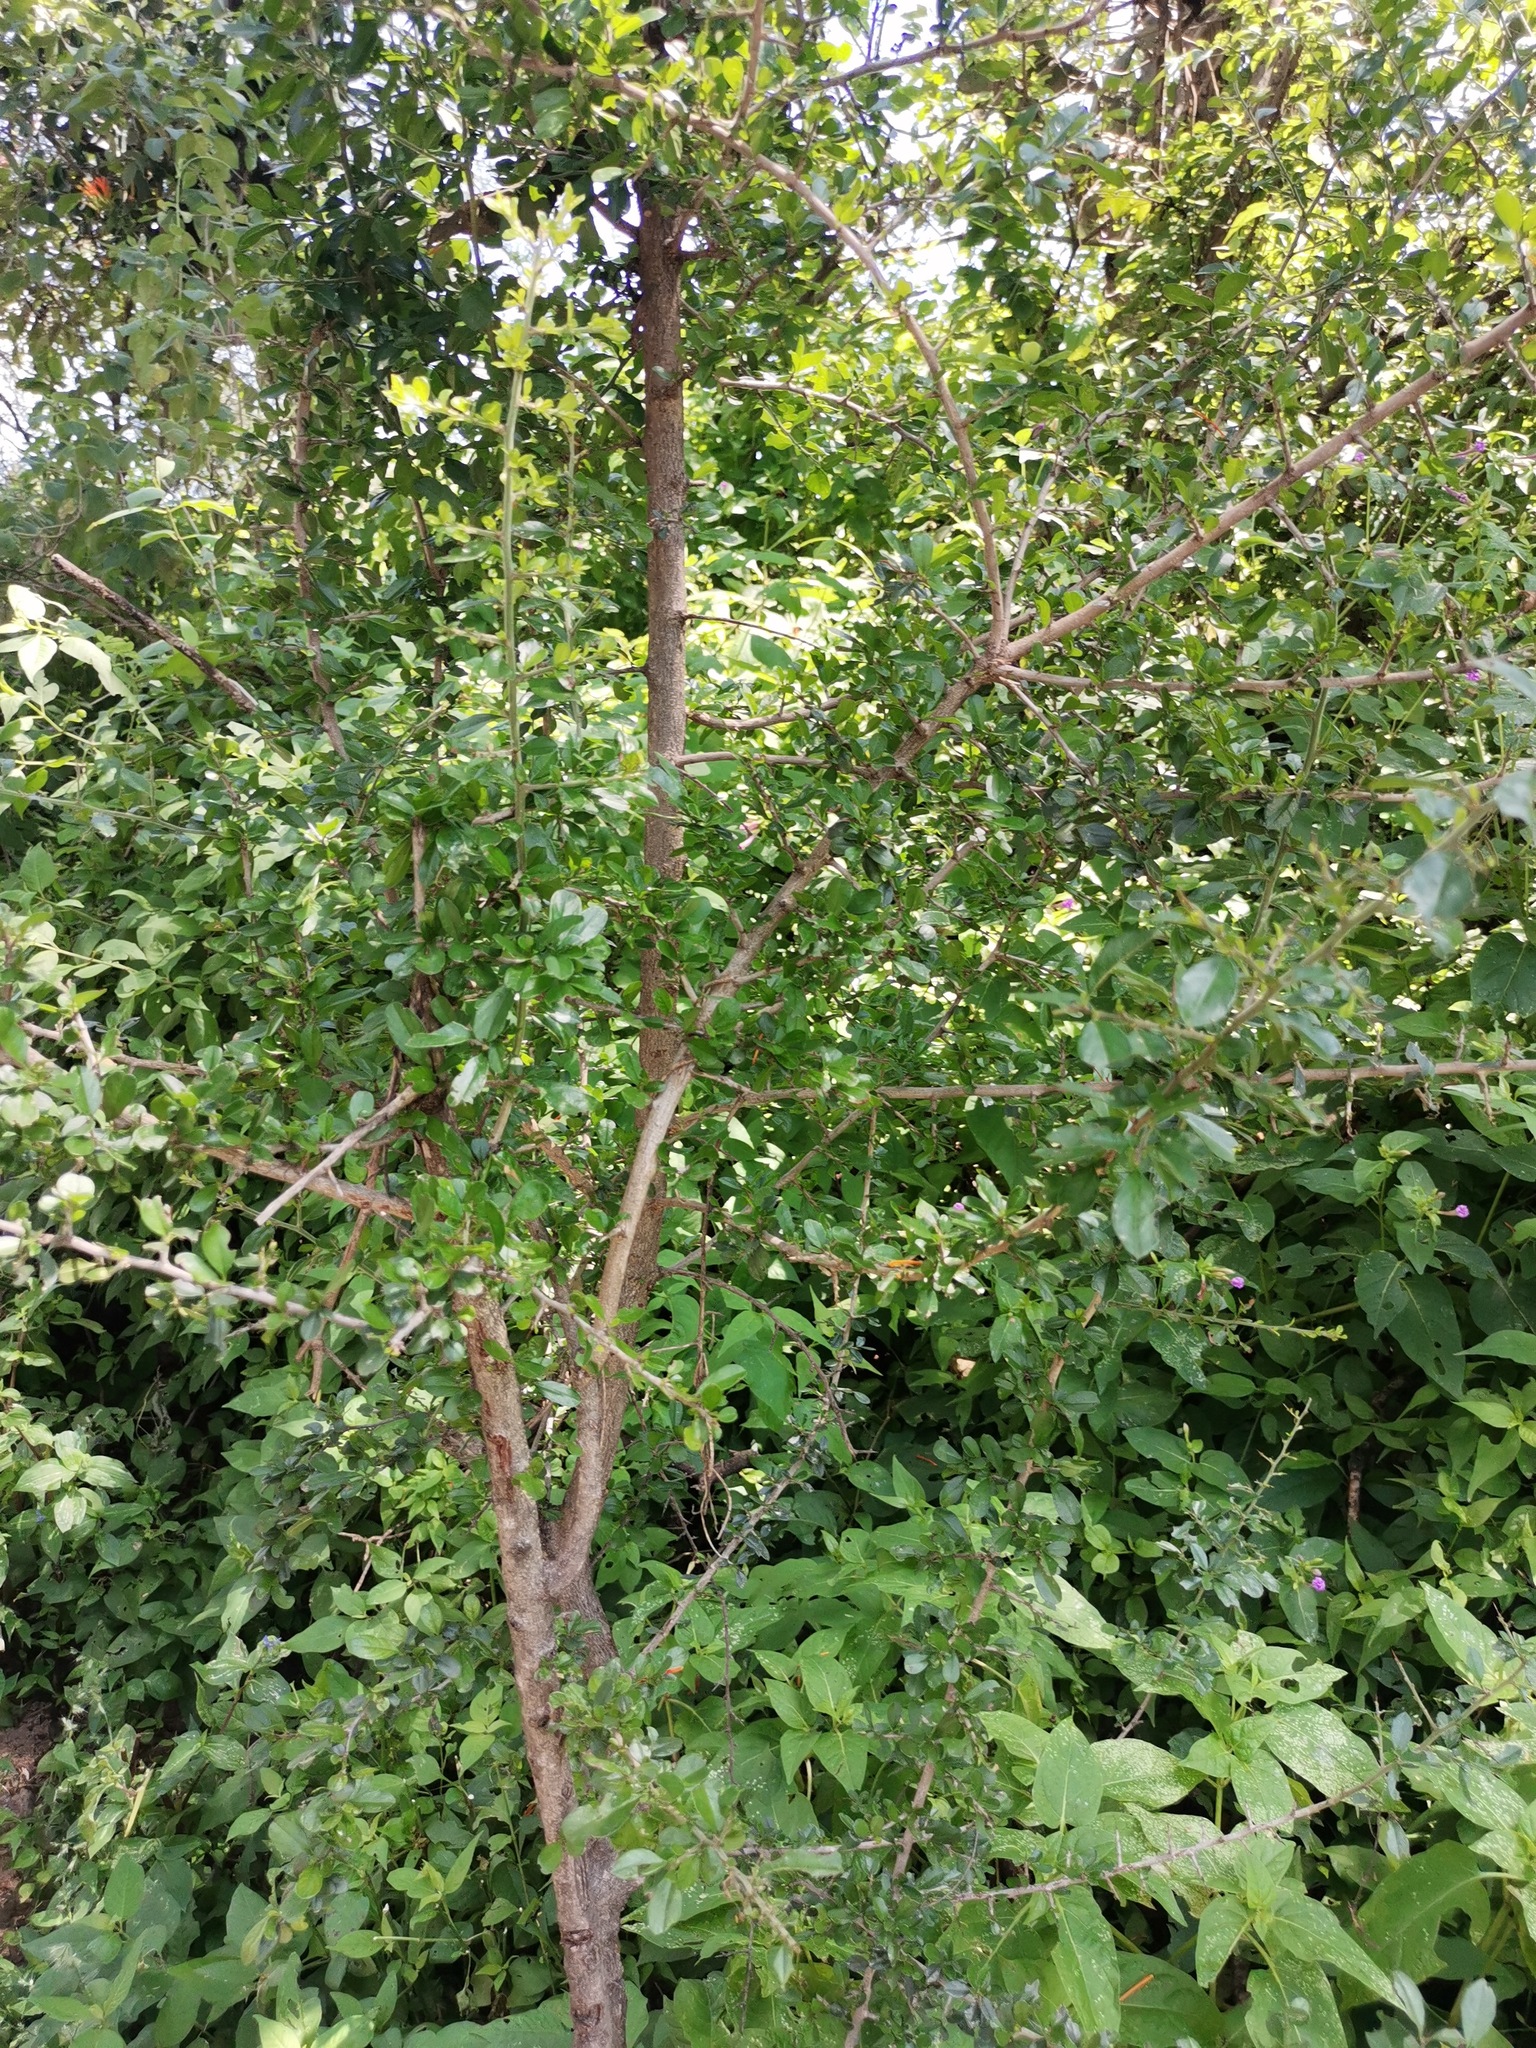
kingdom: Plantae
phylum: Tracheophyta
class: Magnoliopsida
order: Rosales
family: Rhamnaceae
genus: Condalia
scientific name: Condalia velutina
